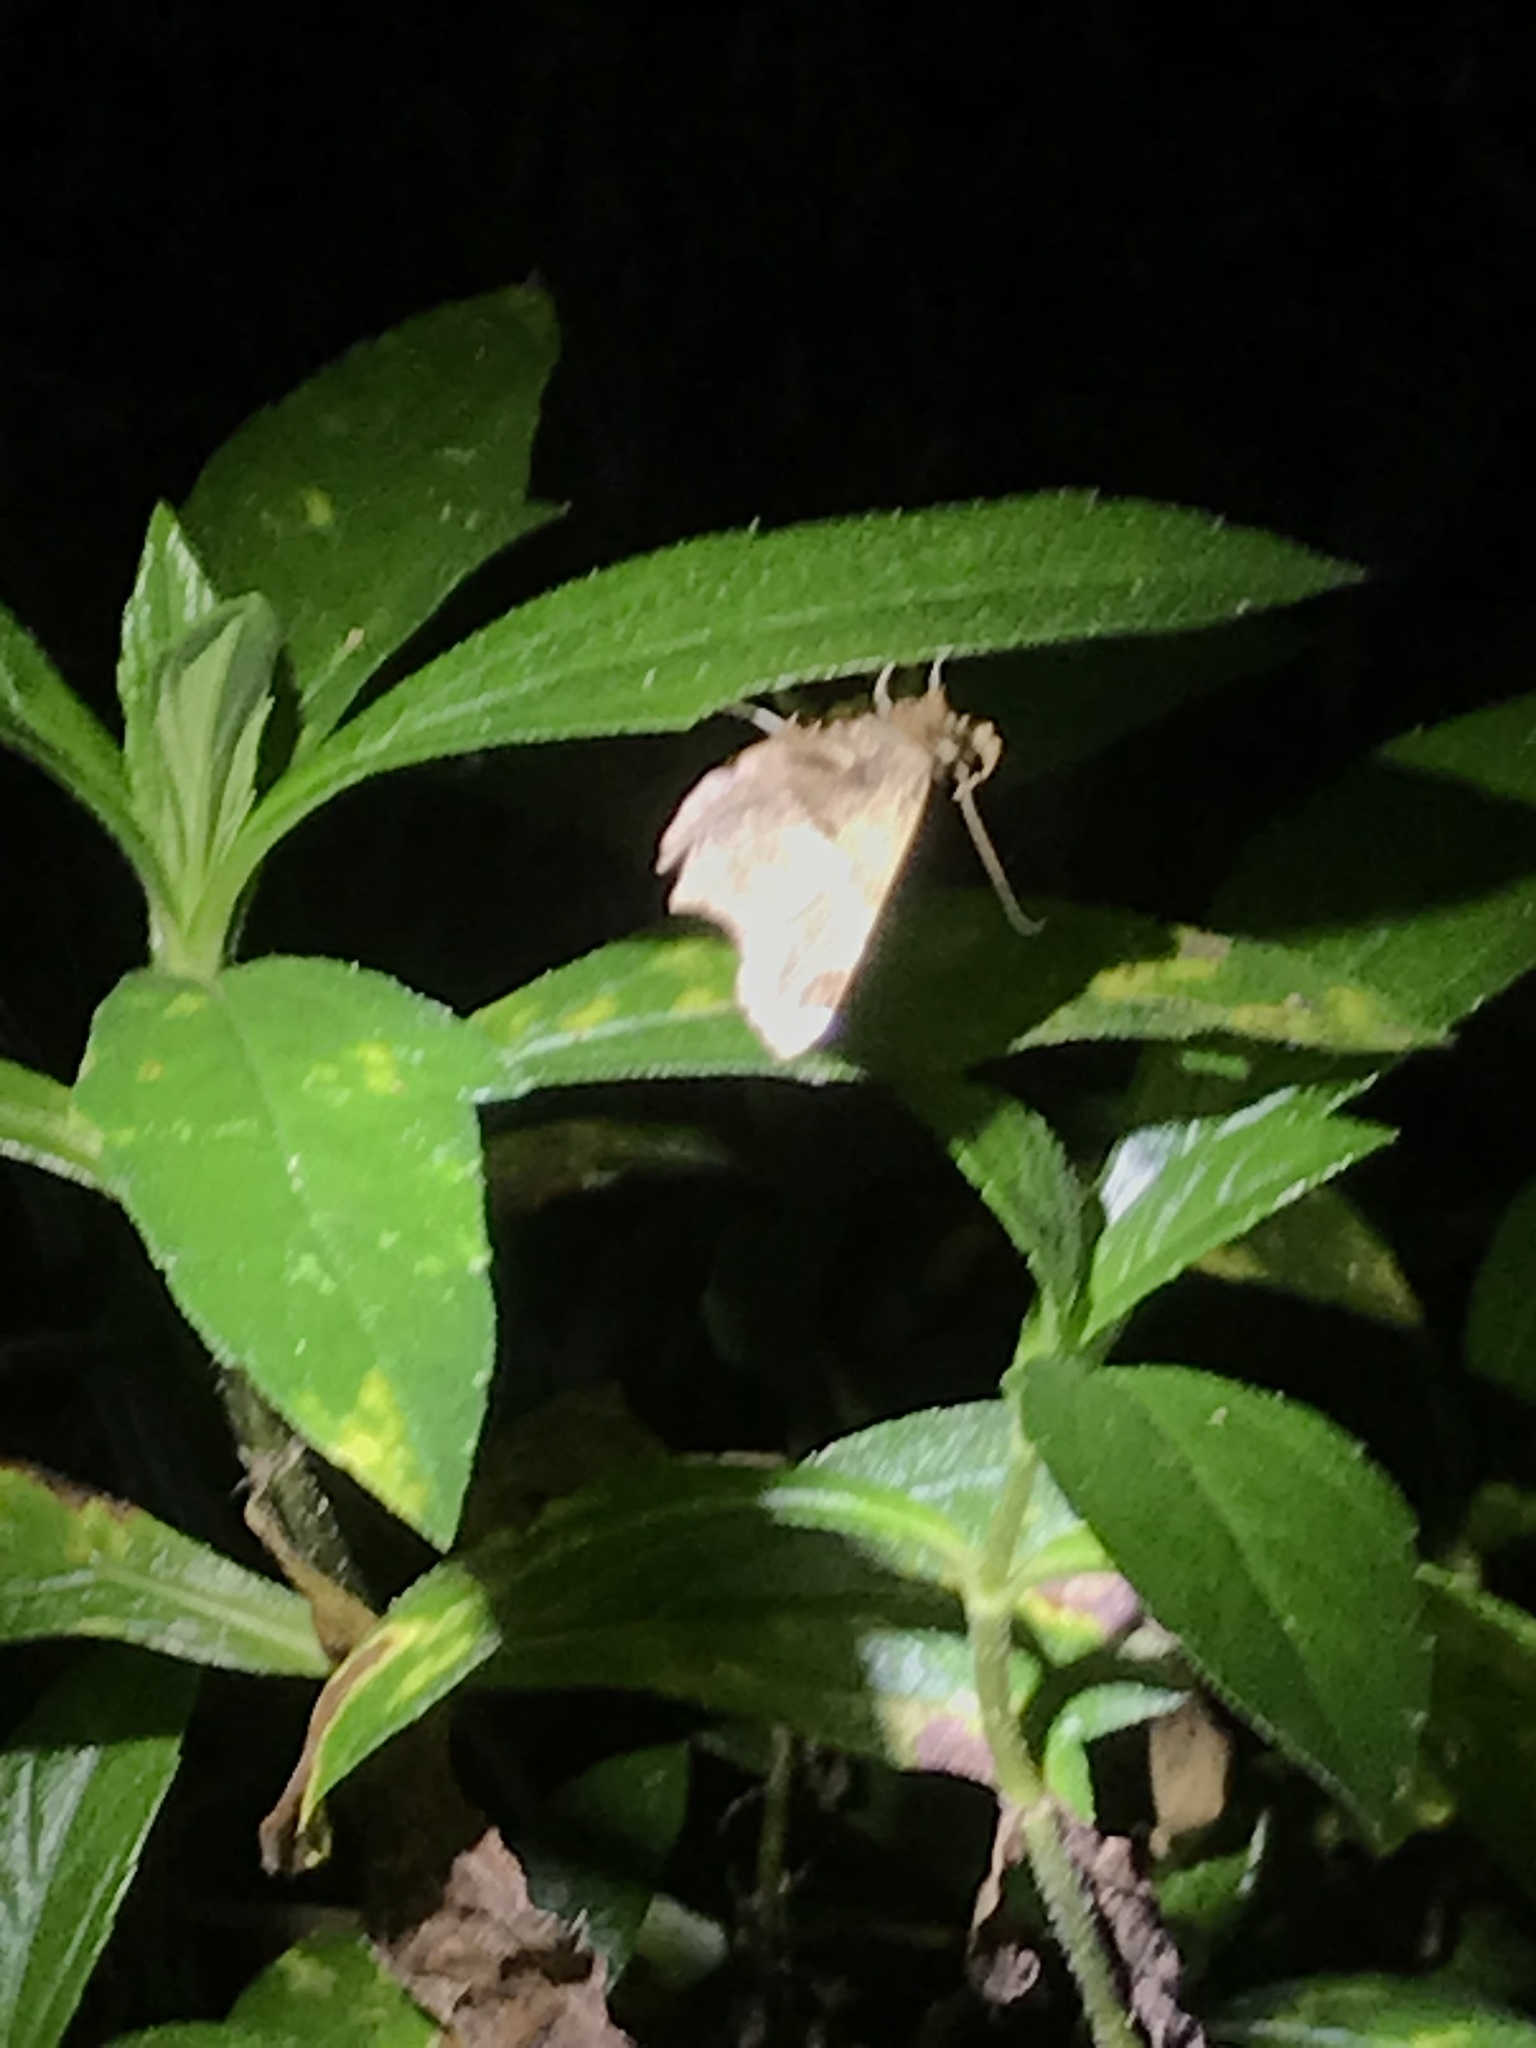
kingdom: Animalia
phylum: Arthropoda
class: Insecta
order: Lepidoptera
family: Erebidae
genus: Oxyodes
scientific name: Oxyodes scrobiculata
